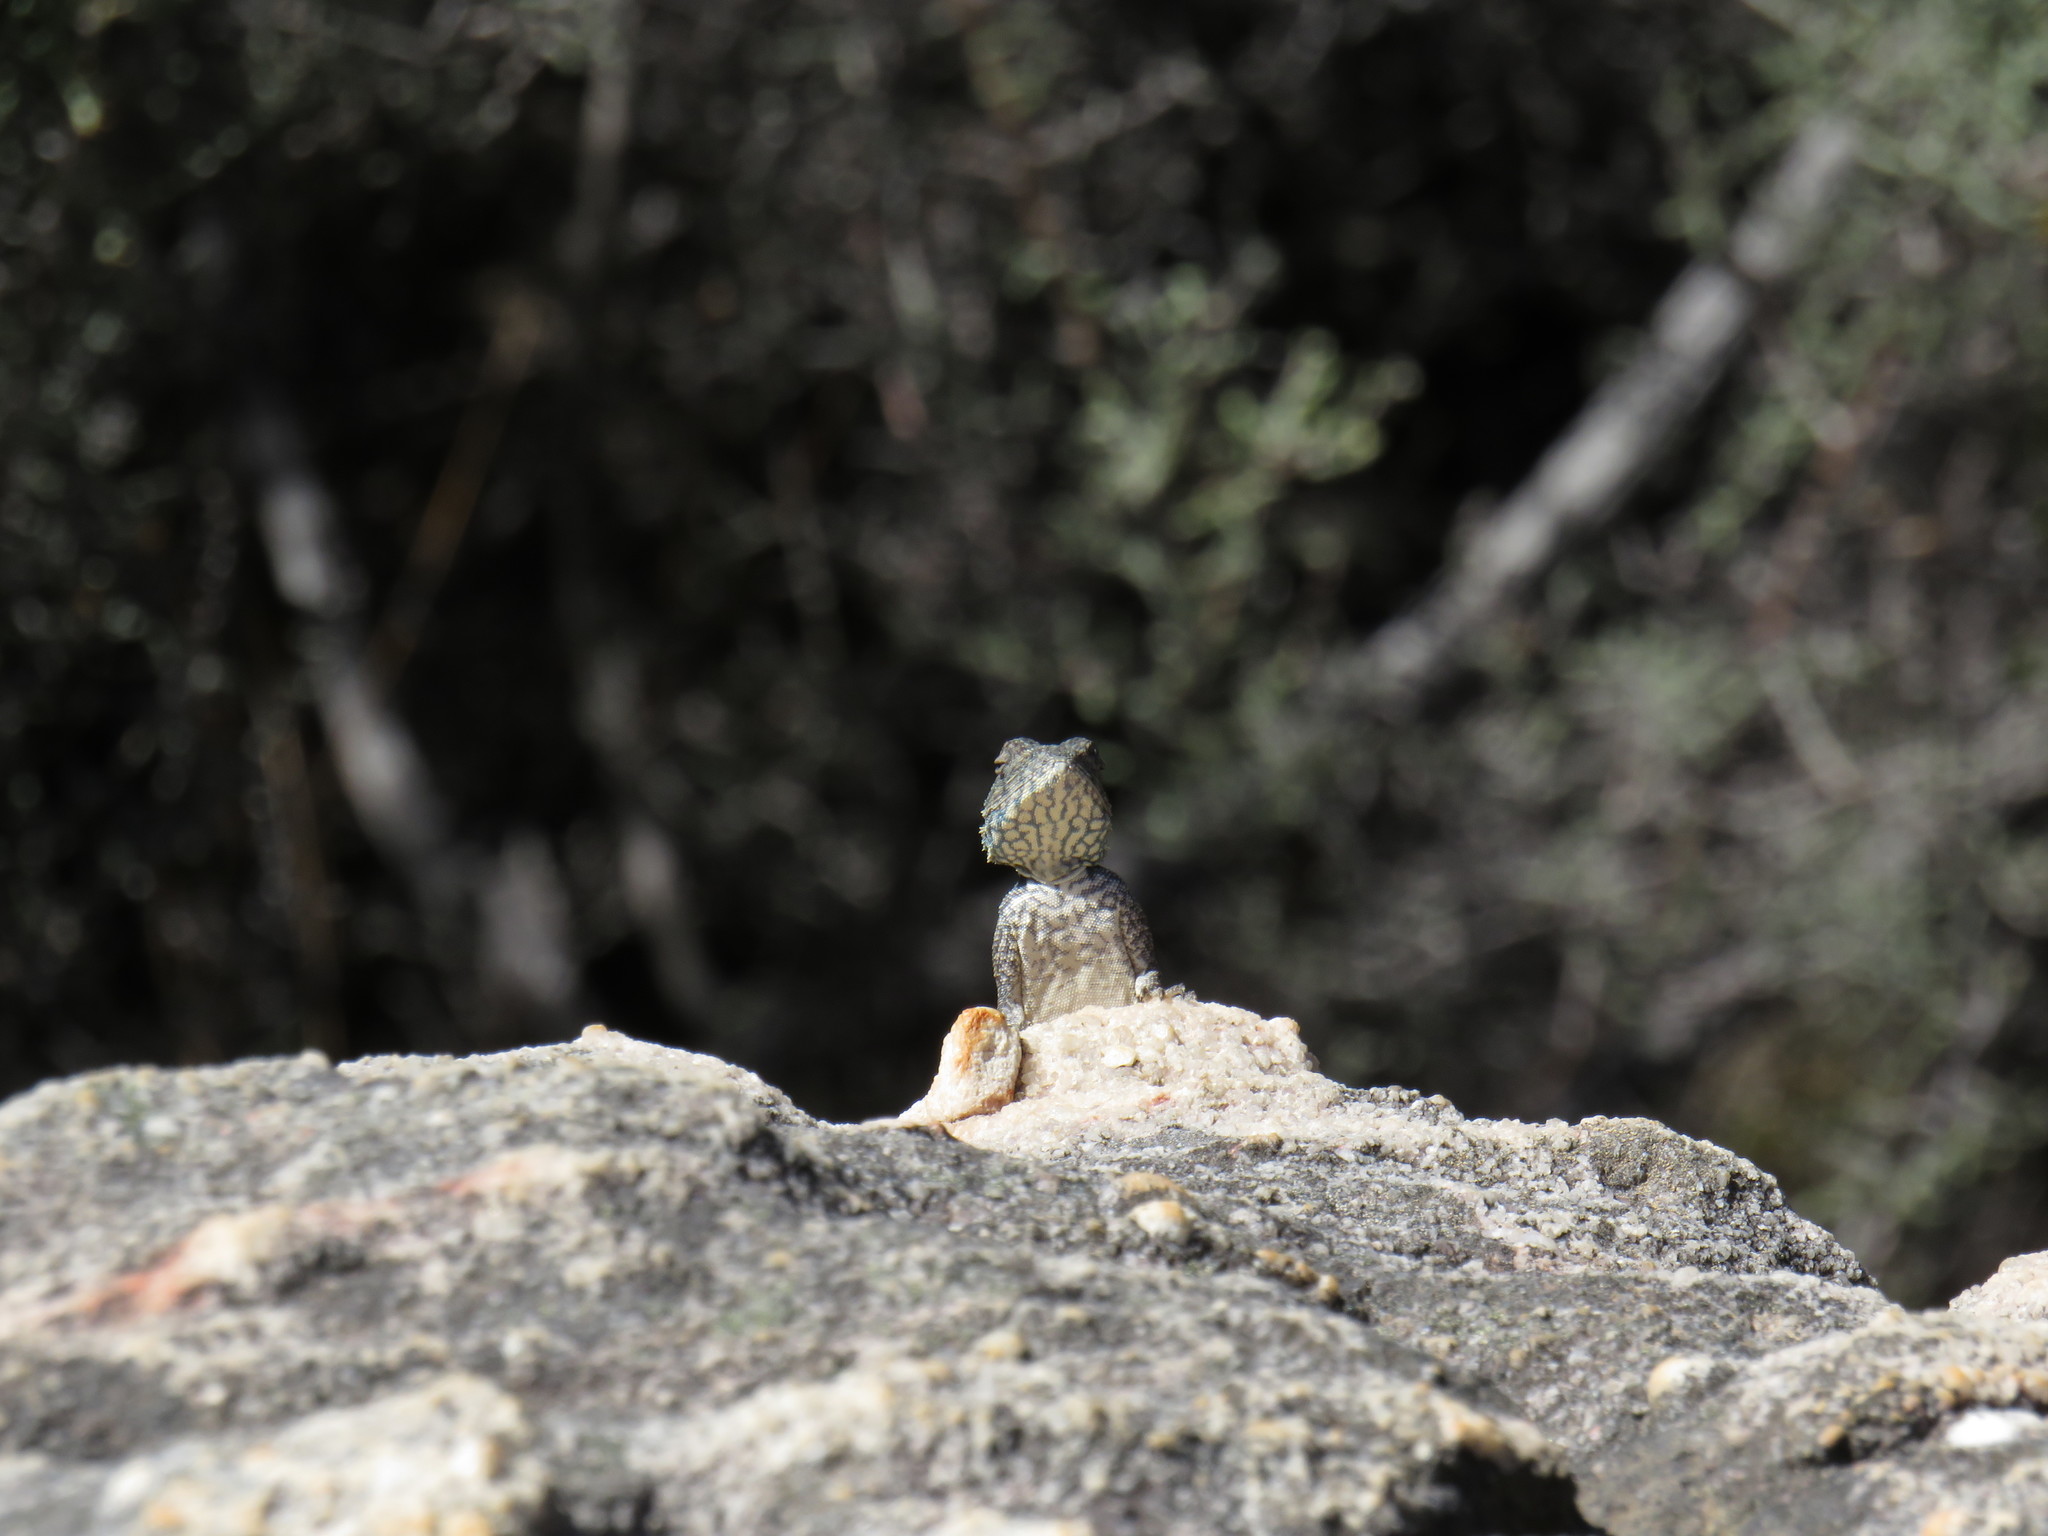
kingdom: Animalia
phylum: Chordata
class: Squamata
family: Agamidae
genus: Agama
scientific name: Agama atra
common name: Southern african rock agama
